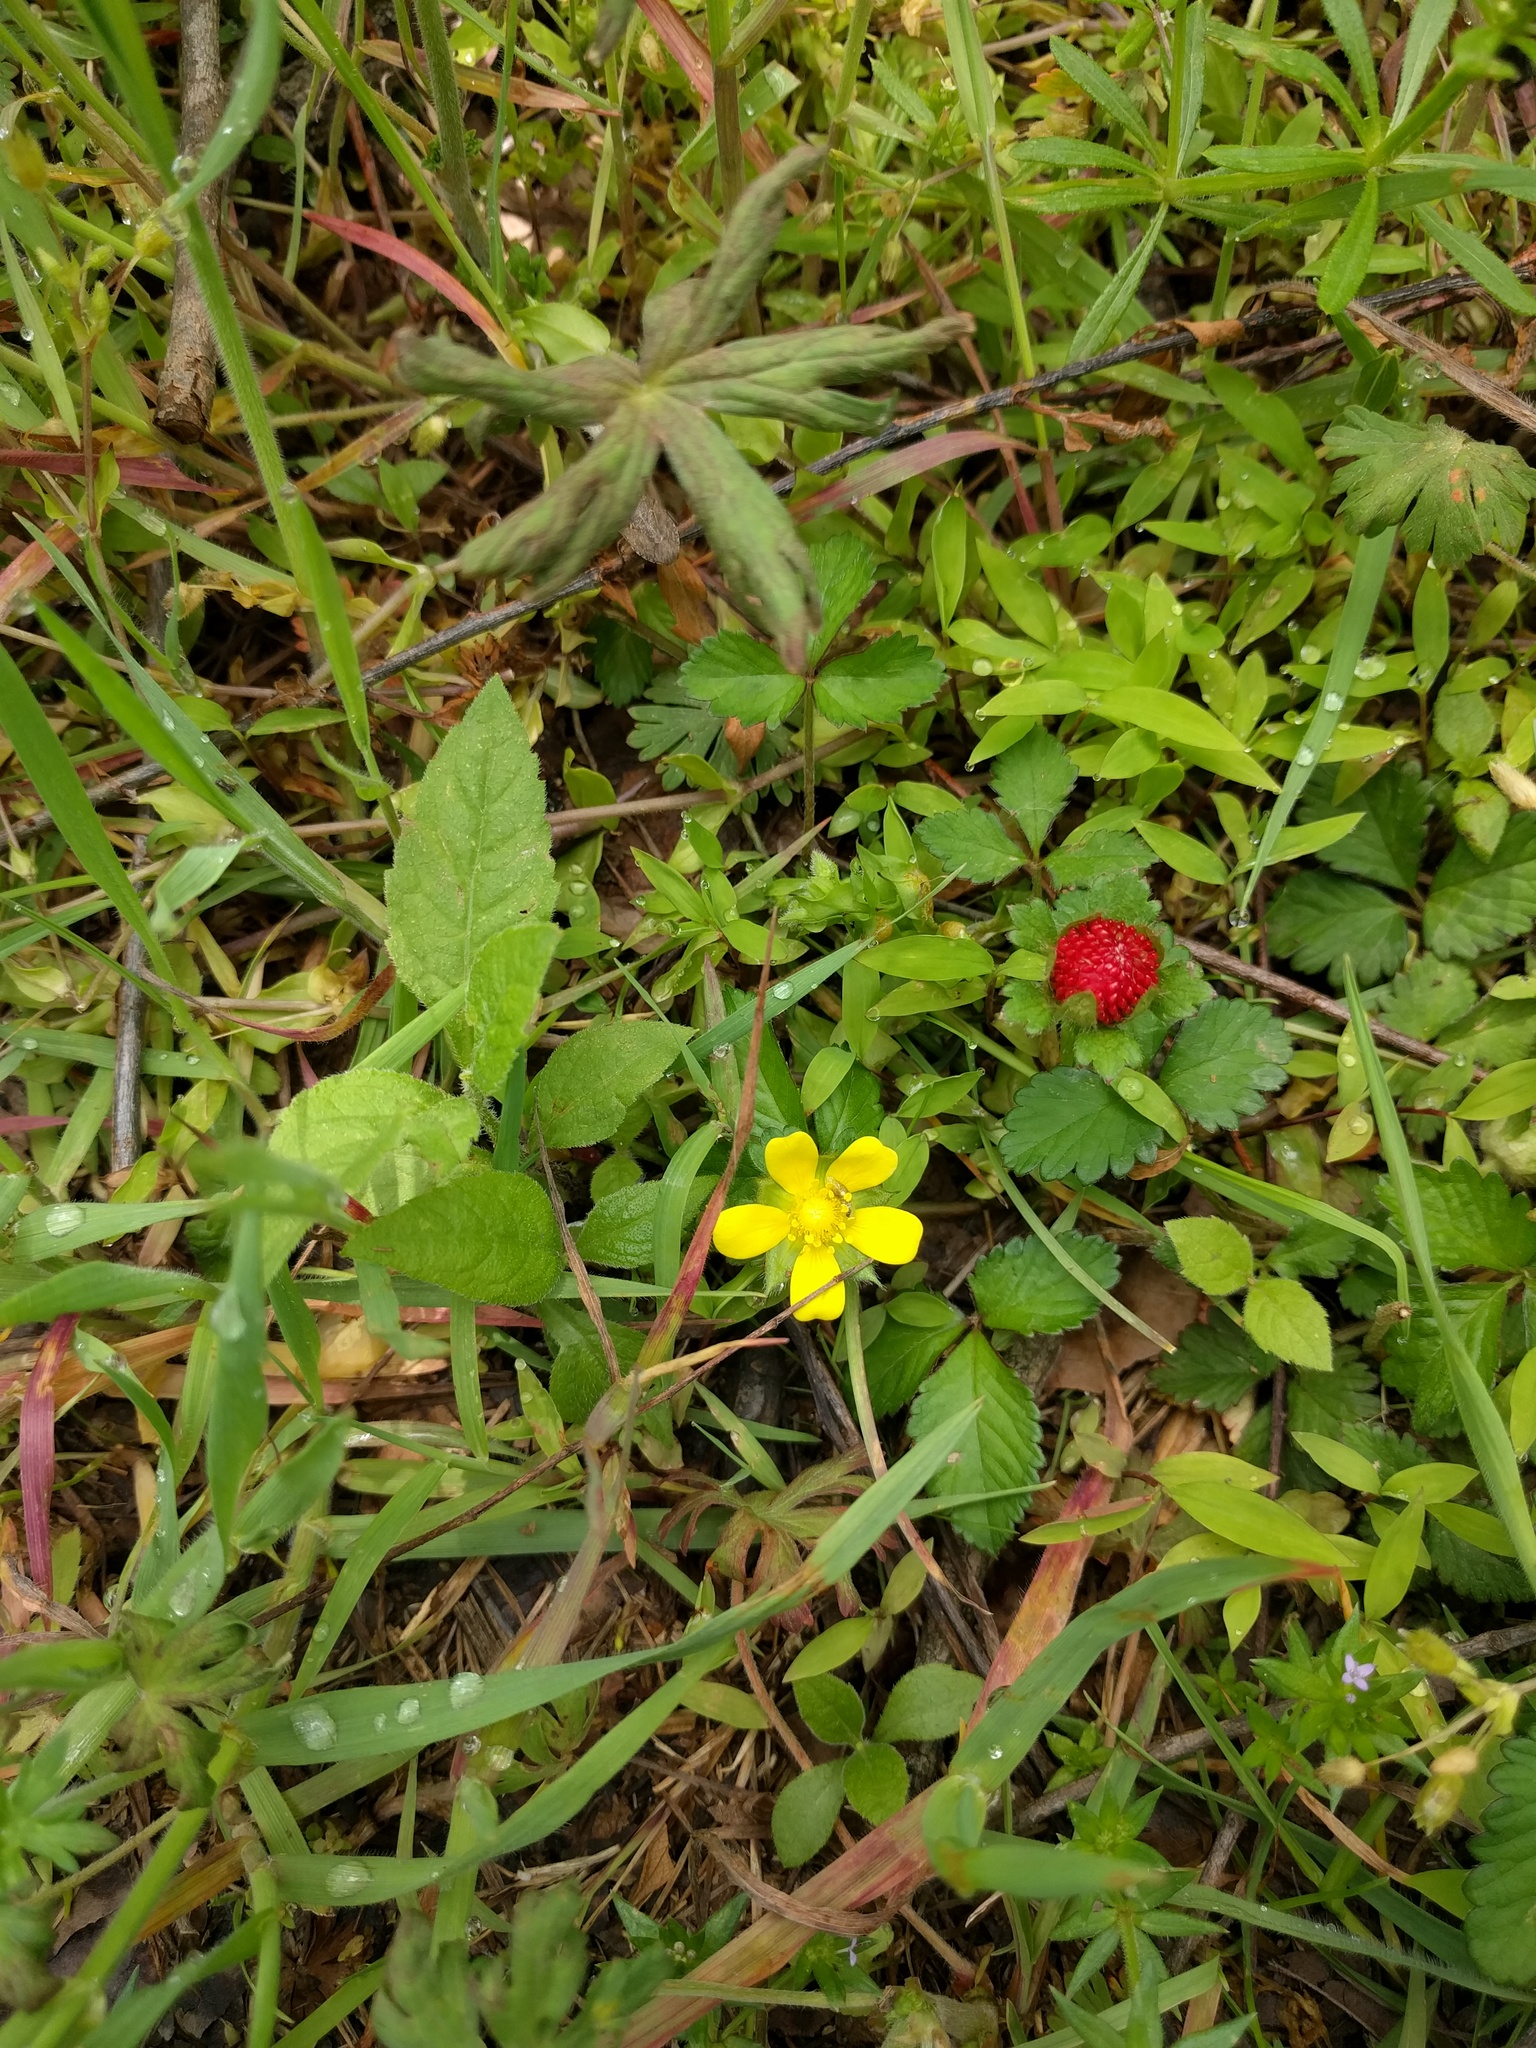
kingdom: Plantae
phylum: Tracheophyta
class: Magnoliopsida
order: Rosales
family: Rosaceae
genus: Potentilla
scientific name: Potentilla indica
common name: Yellow-flowered strawberry
